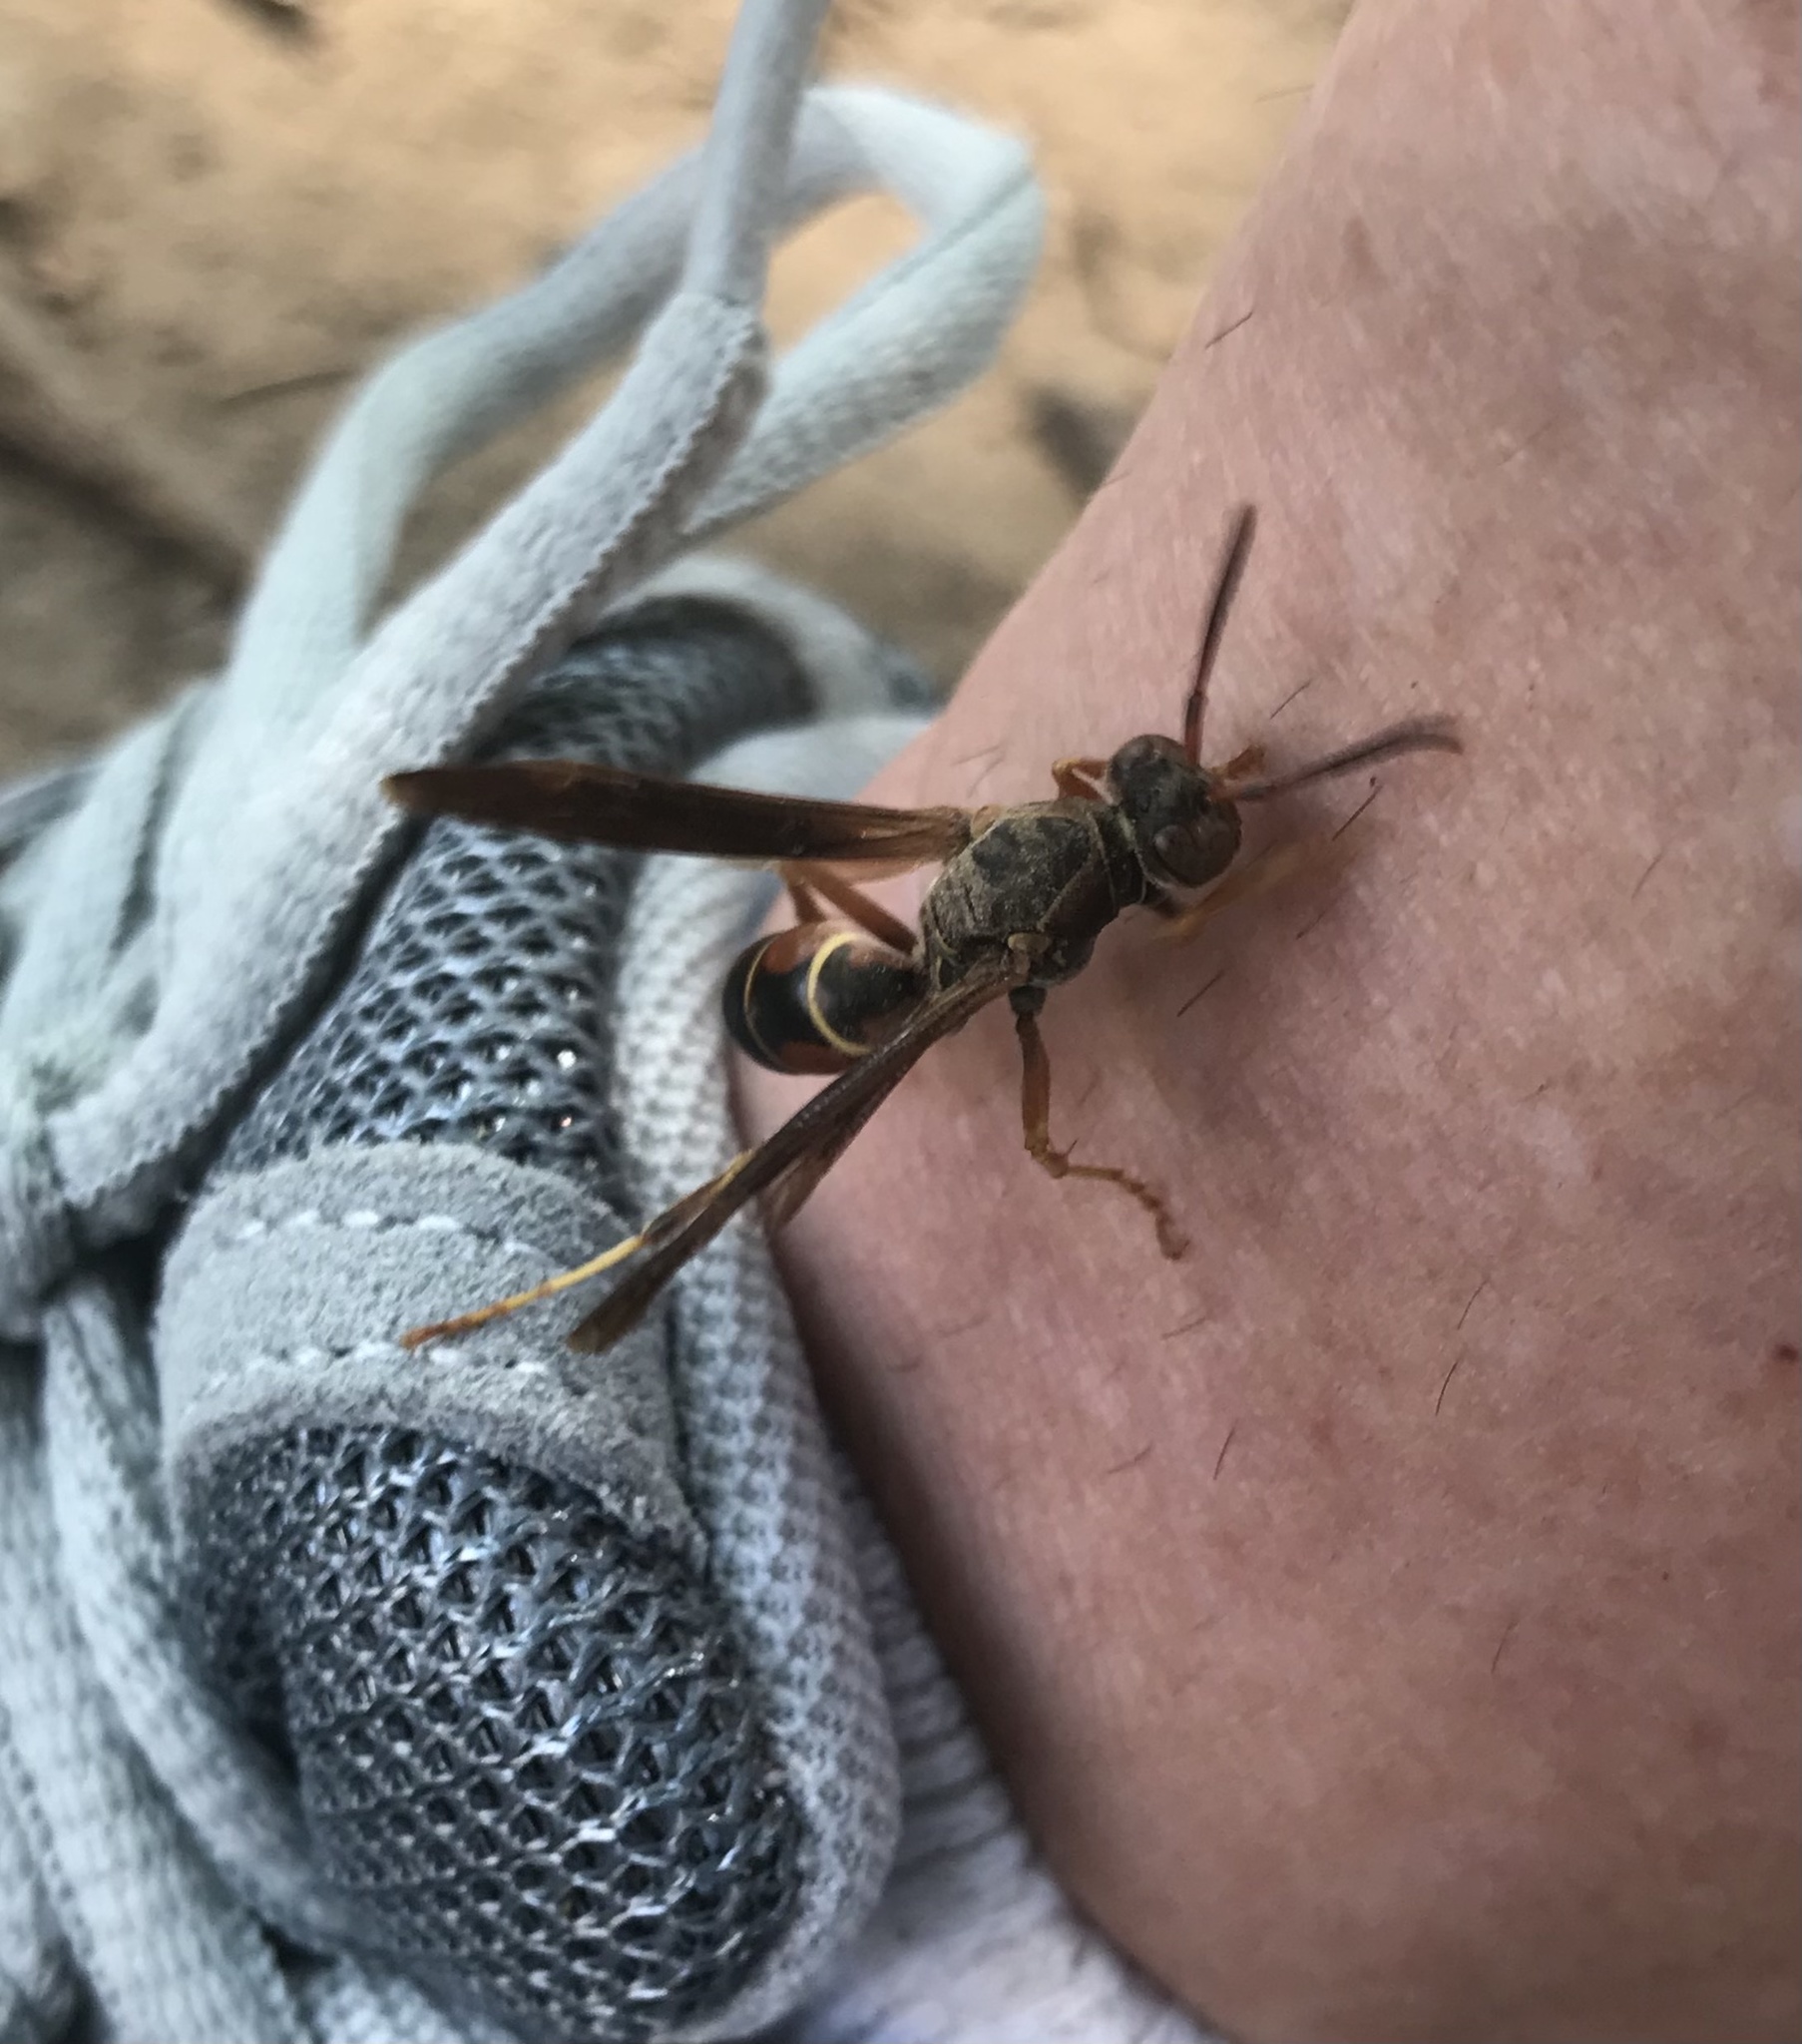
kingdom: Animalia
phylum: Arthropoda
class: Insecta
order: Hymenoptera
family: Eumenidae
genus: Polistes
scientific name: Polistes fuscatus
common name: Dark paper wasp
